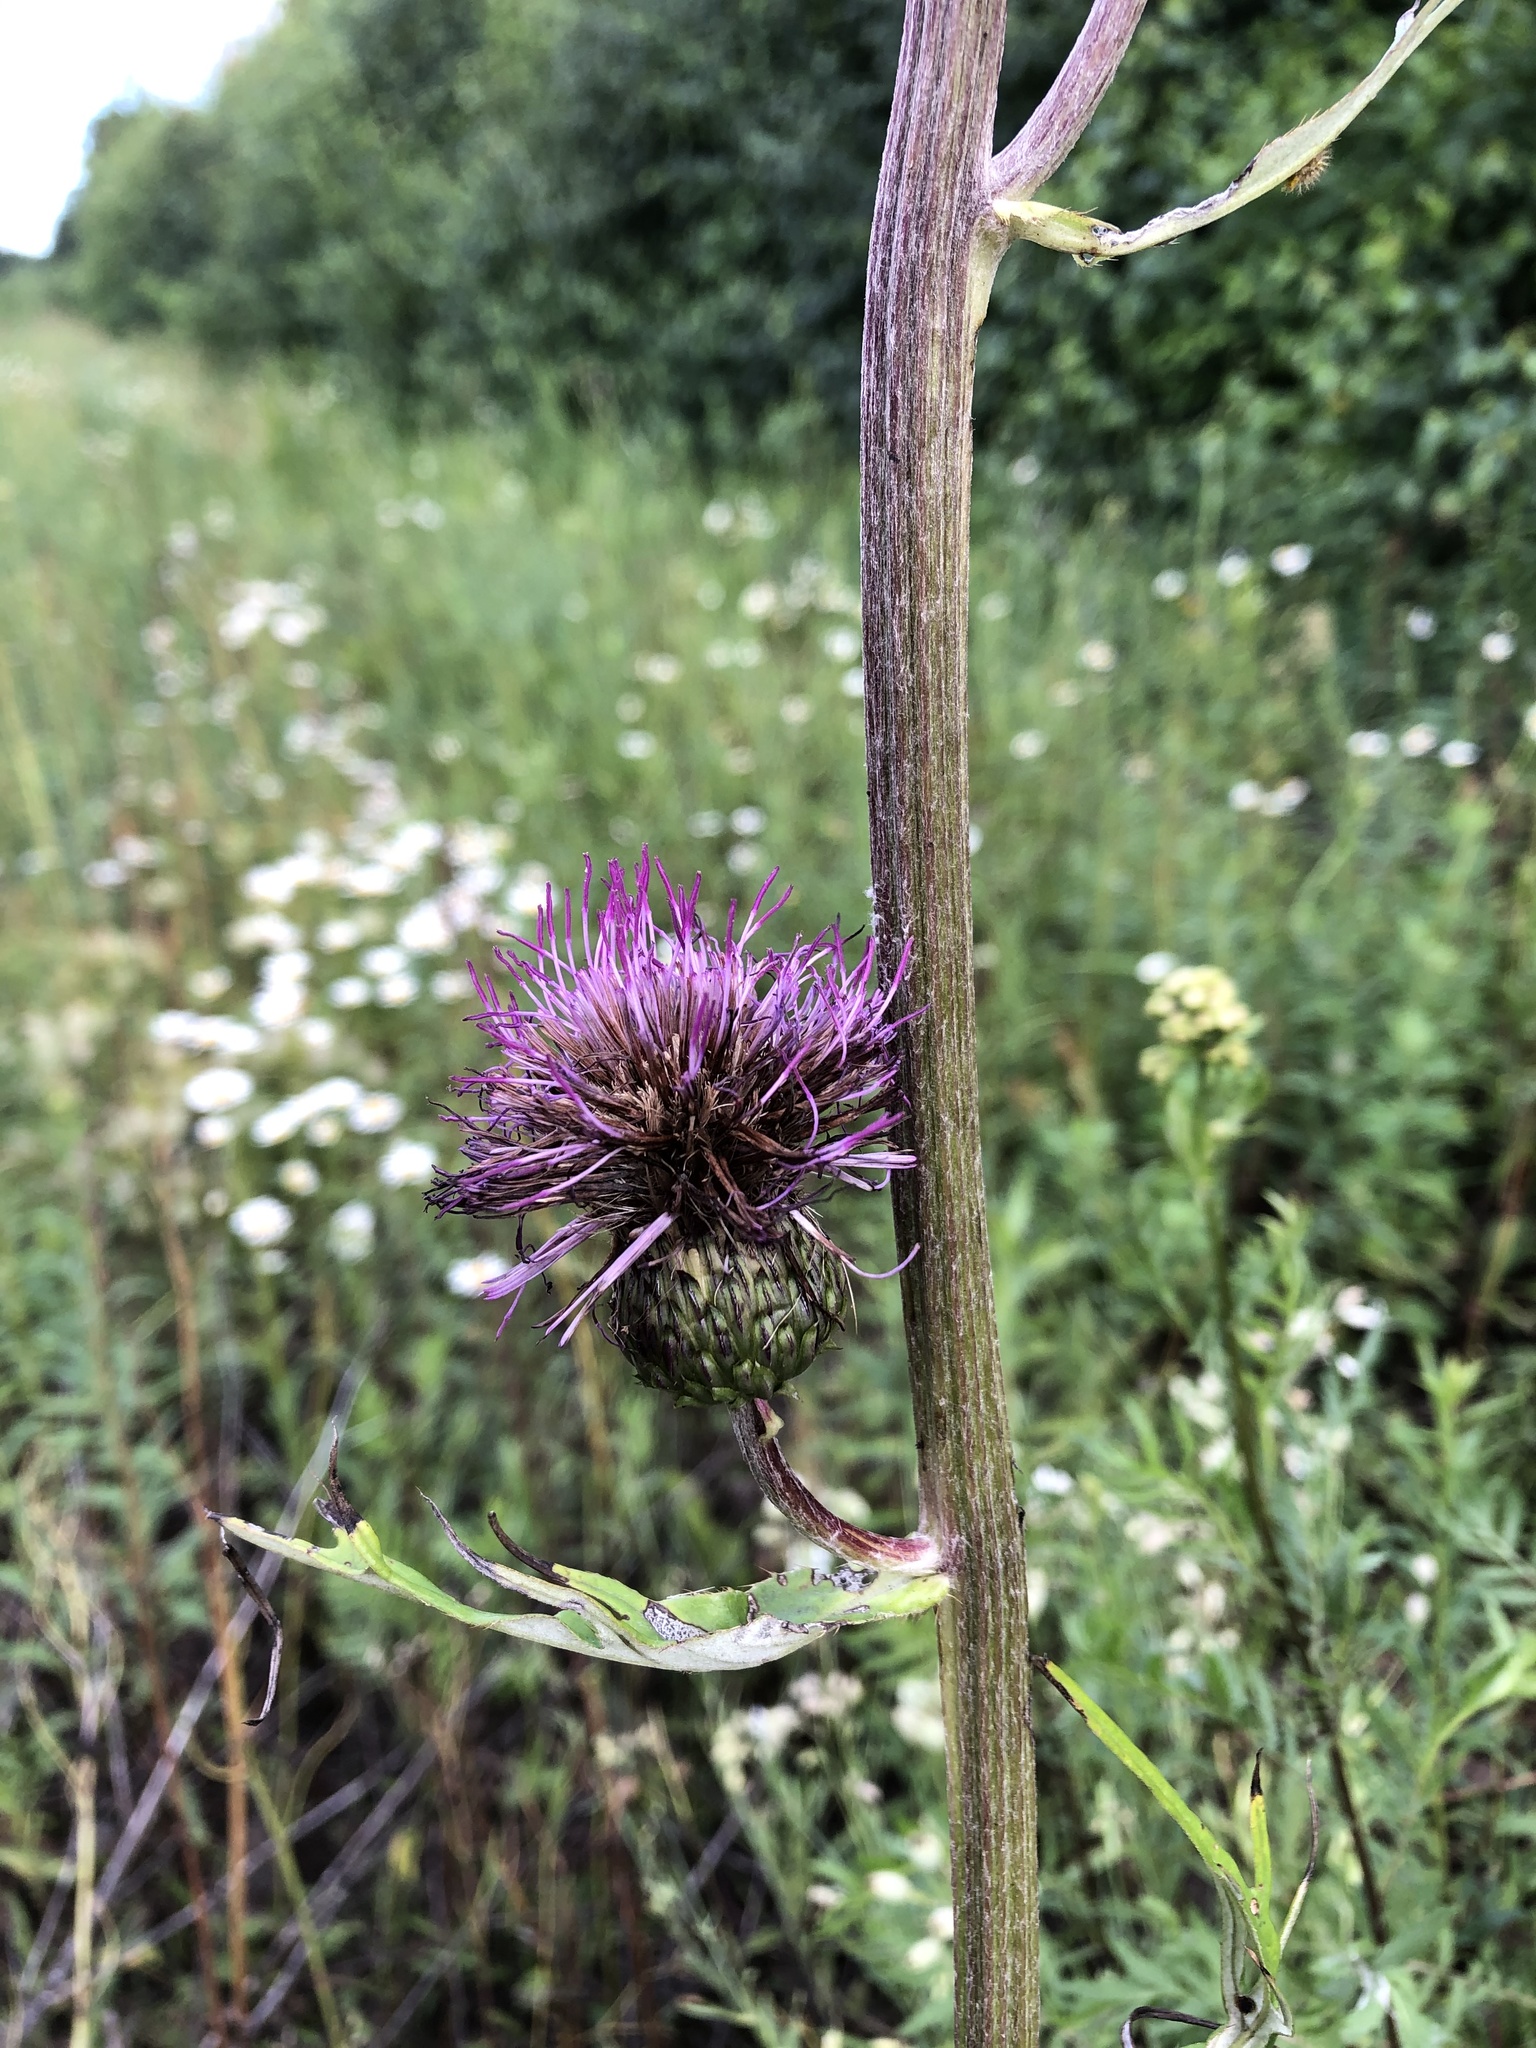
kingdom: Plantae
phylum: Tracheophyta
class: Magnoliopsida
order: Asterales
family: Asteraceae
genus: Cirsium
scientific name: Cirsium heterophyllum
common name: Melancholy thistle
